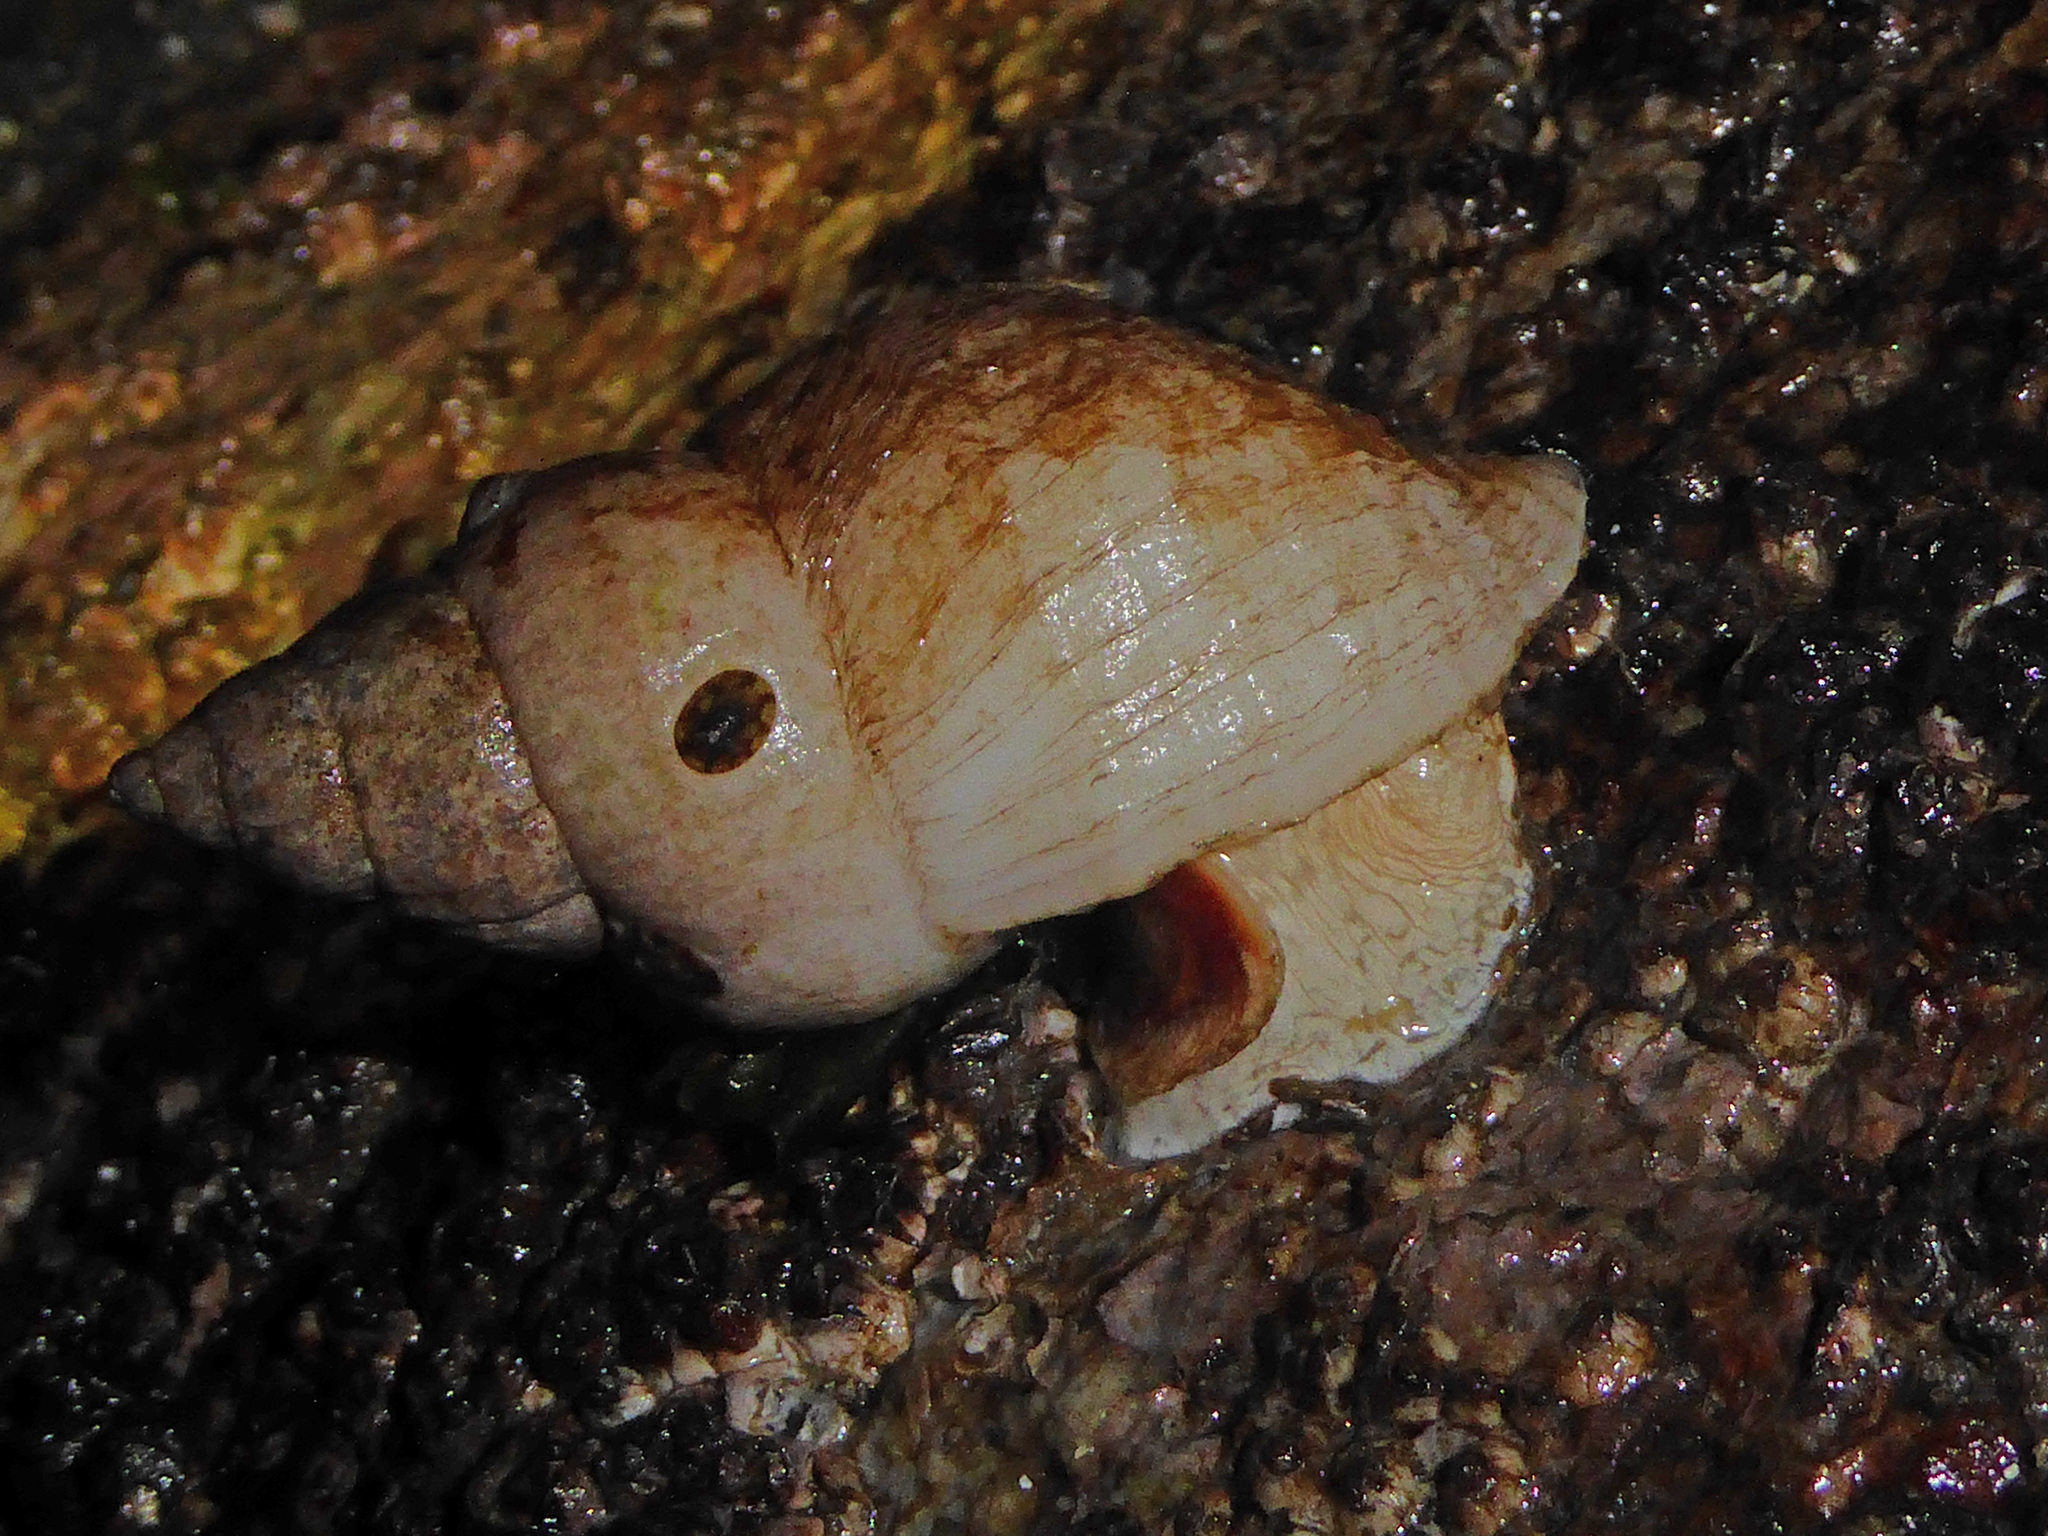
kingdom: Animalia
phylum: Mollusca
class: Gastropoda
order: Neogastropoda
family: Muricidae
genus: Nucella
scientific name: Nucella lamellosa
